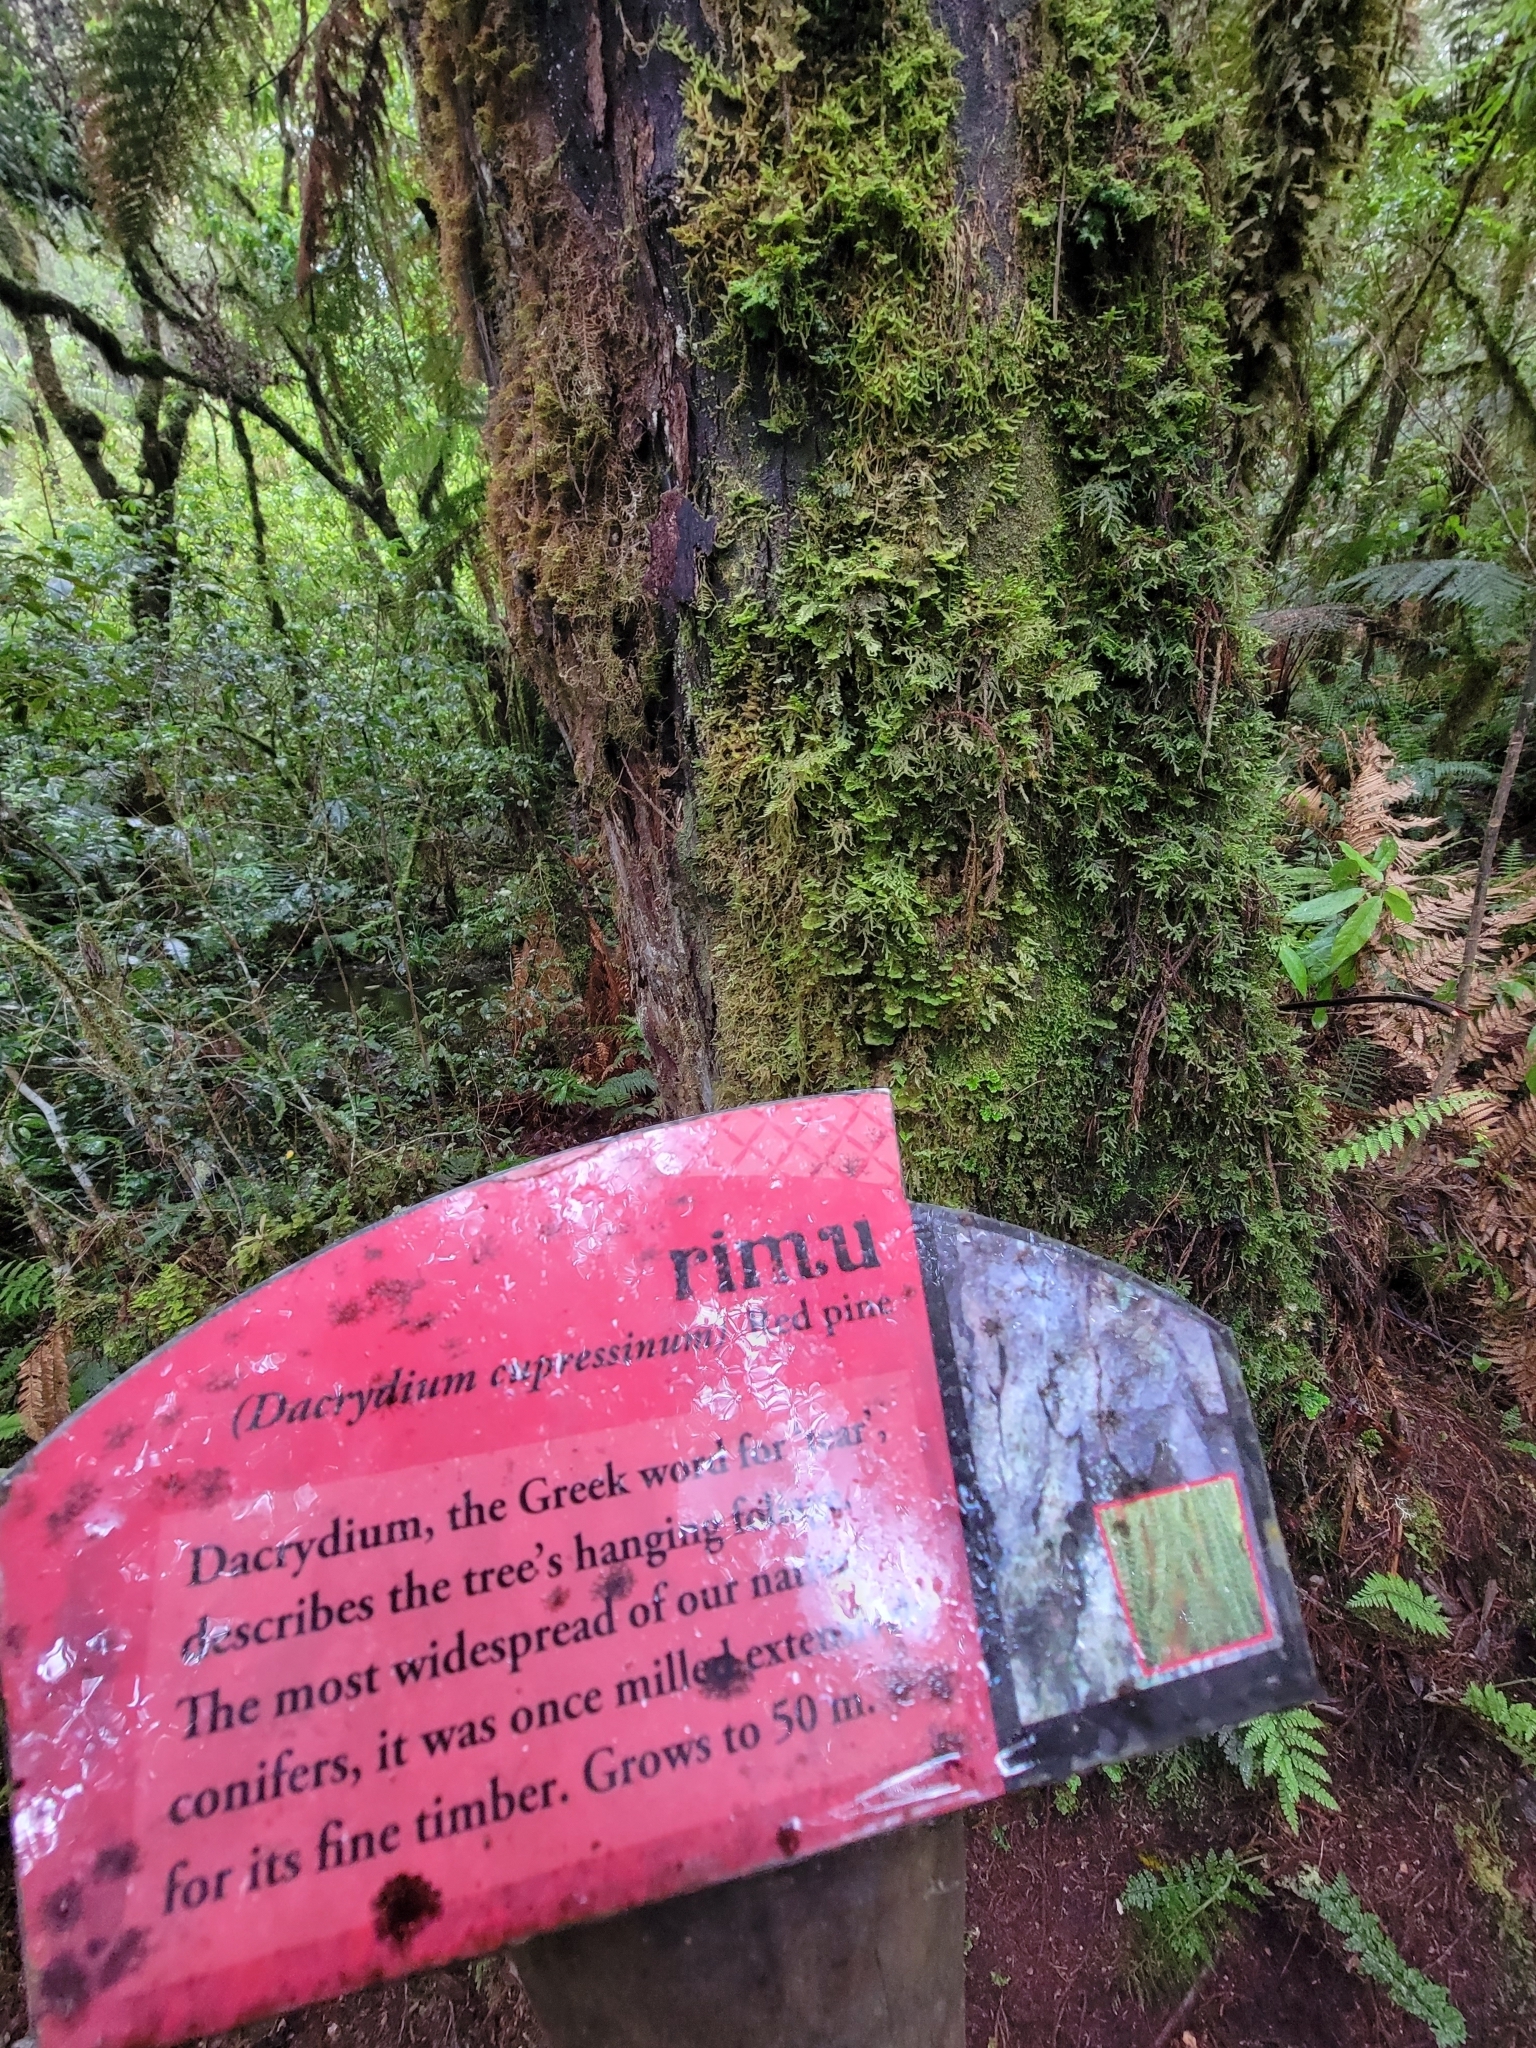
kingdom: Plantae
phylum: Tracheophyta
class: Pinopsida
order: Pinales
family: Podocarpaceae
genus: Dacrydium
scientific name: Dacrydium cupressinum
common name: Red pine
